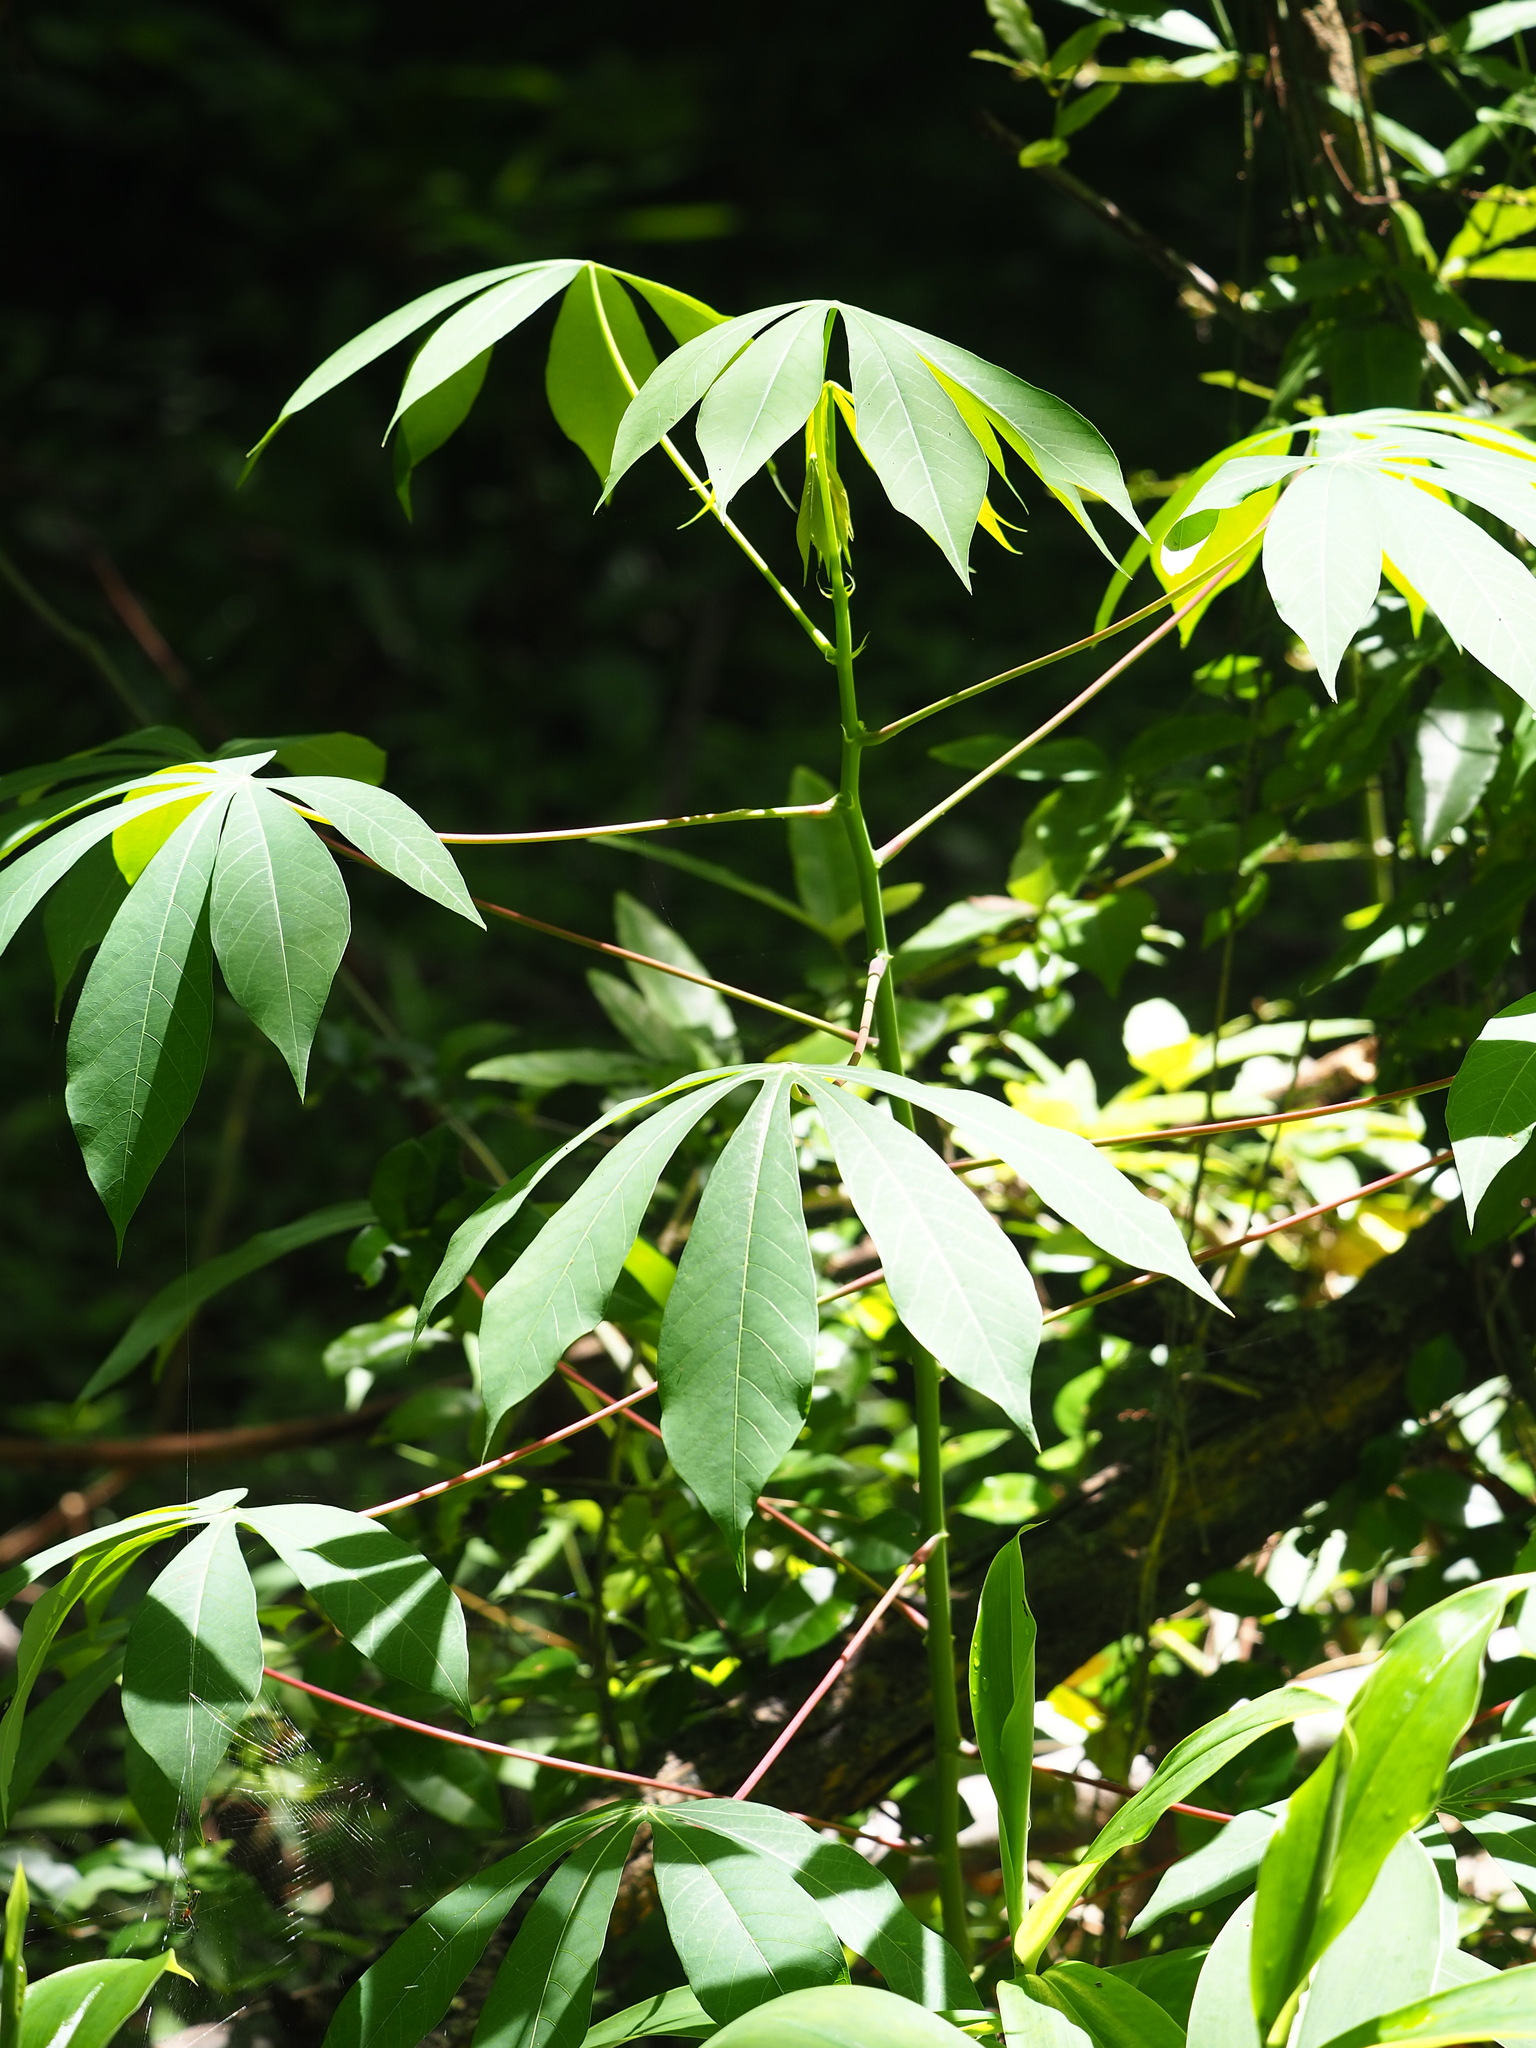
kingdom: Plantae
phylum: Tracheophyta
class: Magnoliopsida
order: Malpighiales
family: Euphorbiaceae
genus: Manihot
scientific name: Manihot esculenta
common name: Cassava
